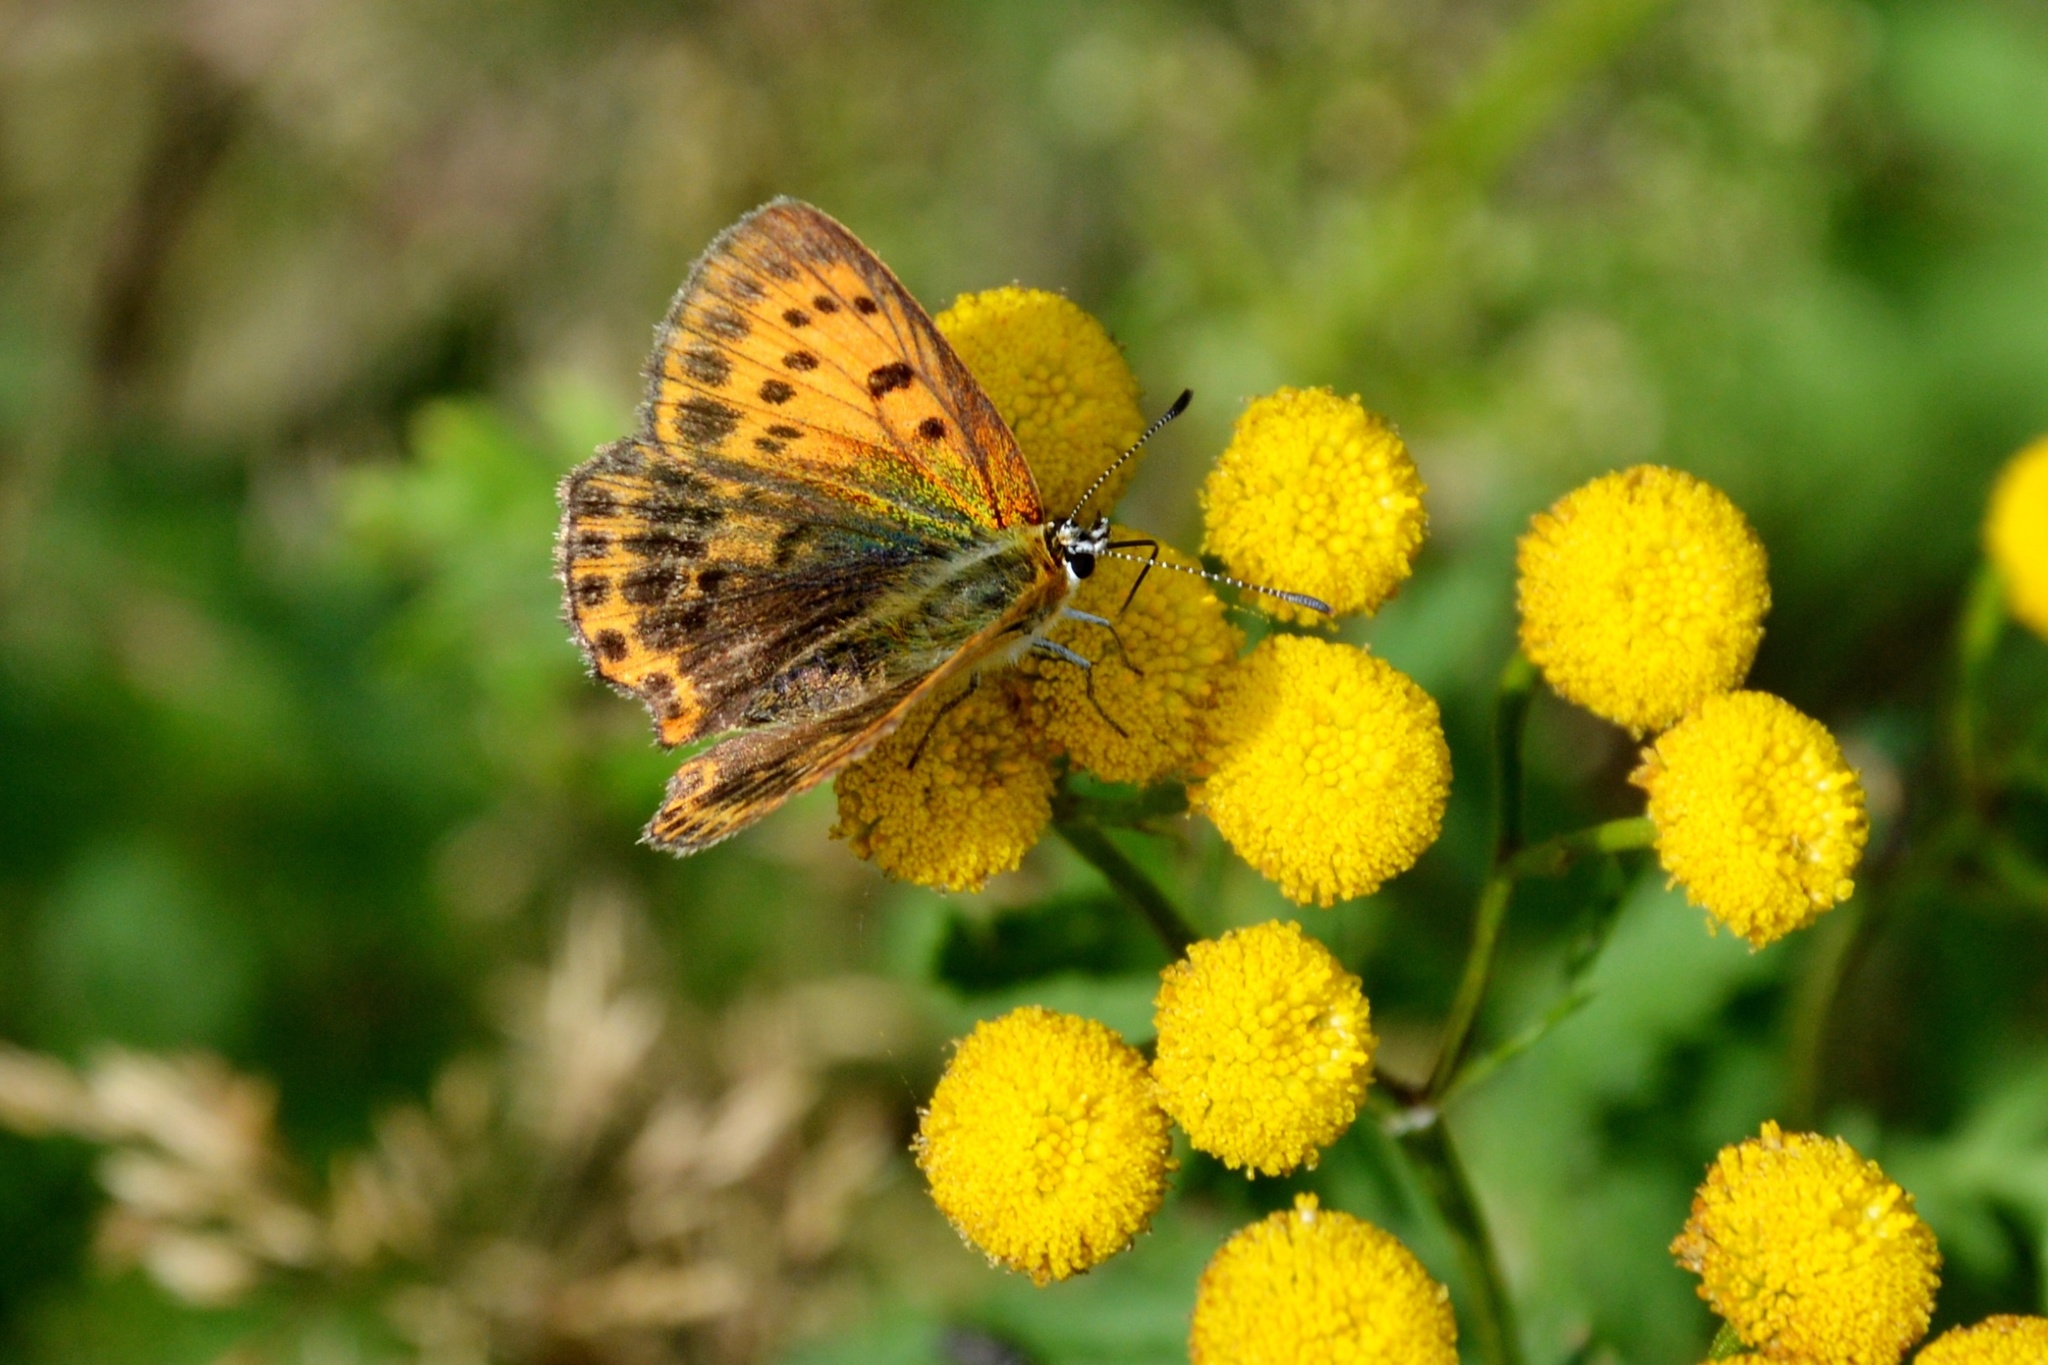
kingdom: Animalia
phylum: Arthropoda
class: Insecta
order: Lepidoptera
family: Lycaenidae
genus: Lycaena
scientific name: Lycaena virgaureae
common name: Scarce copper
